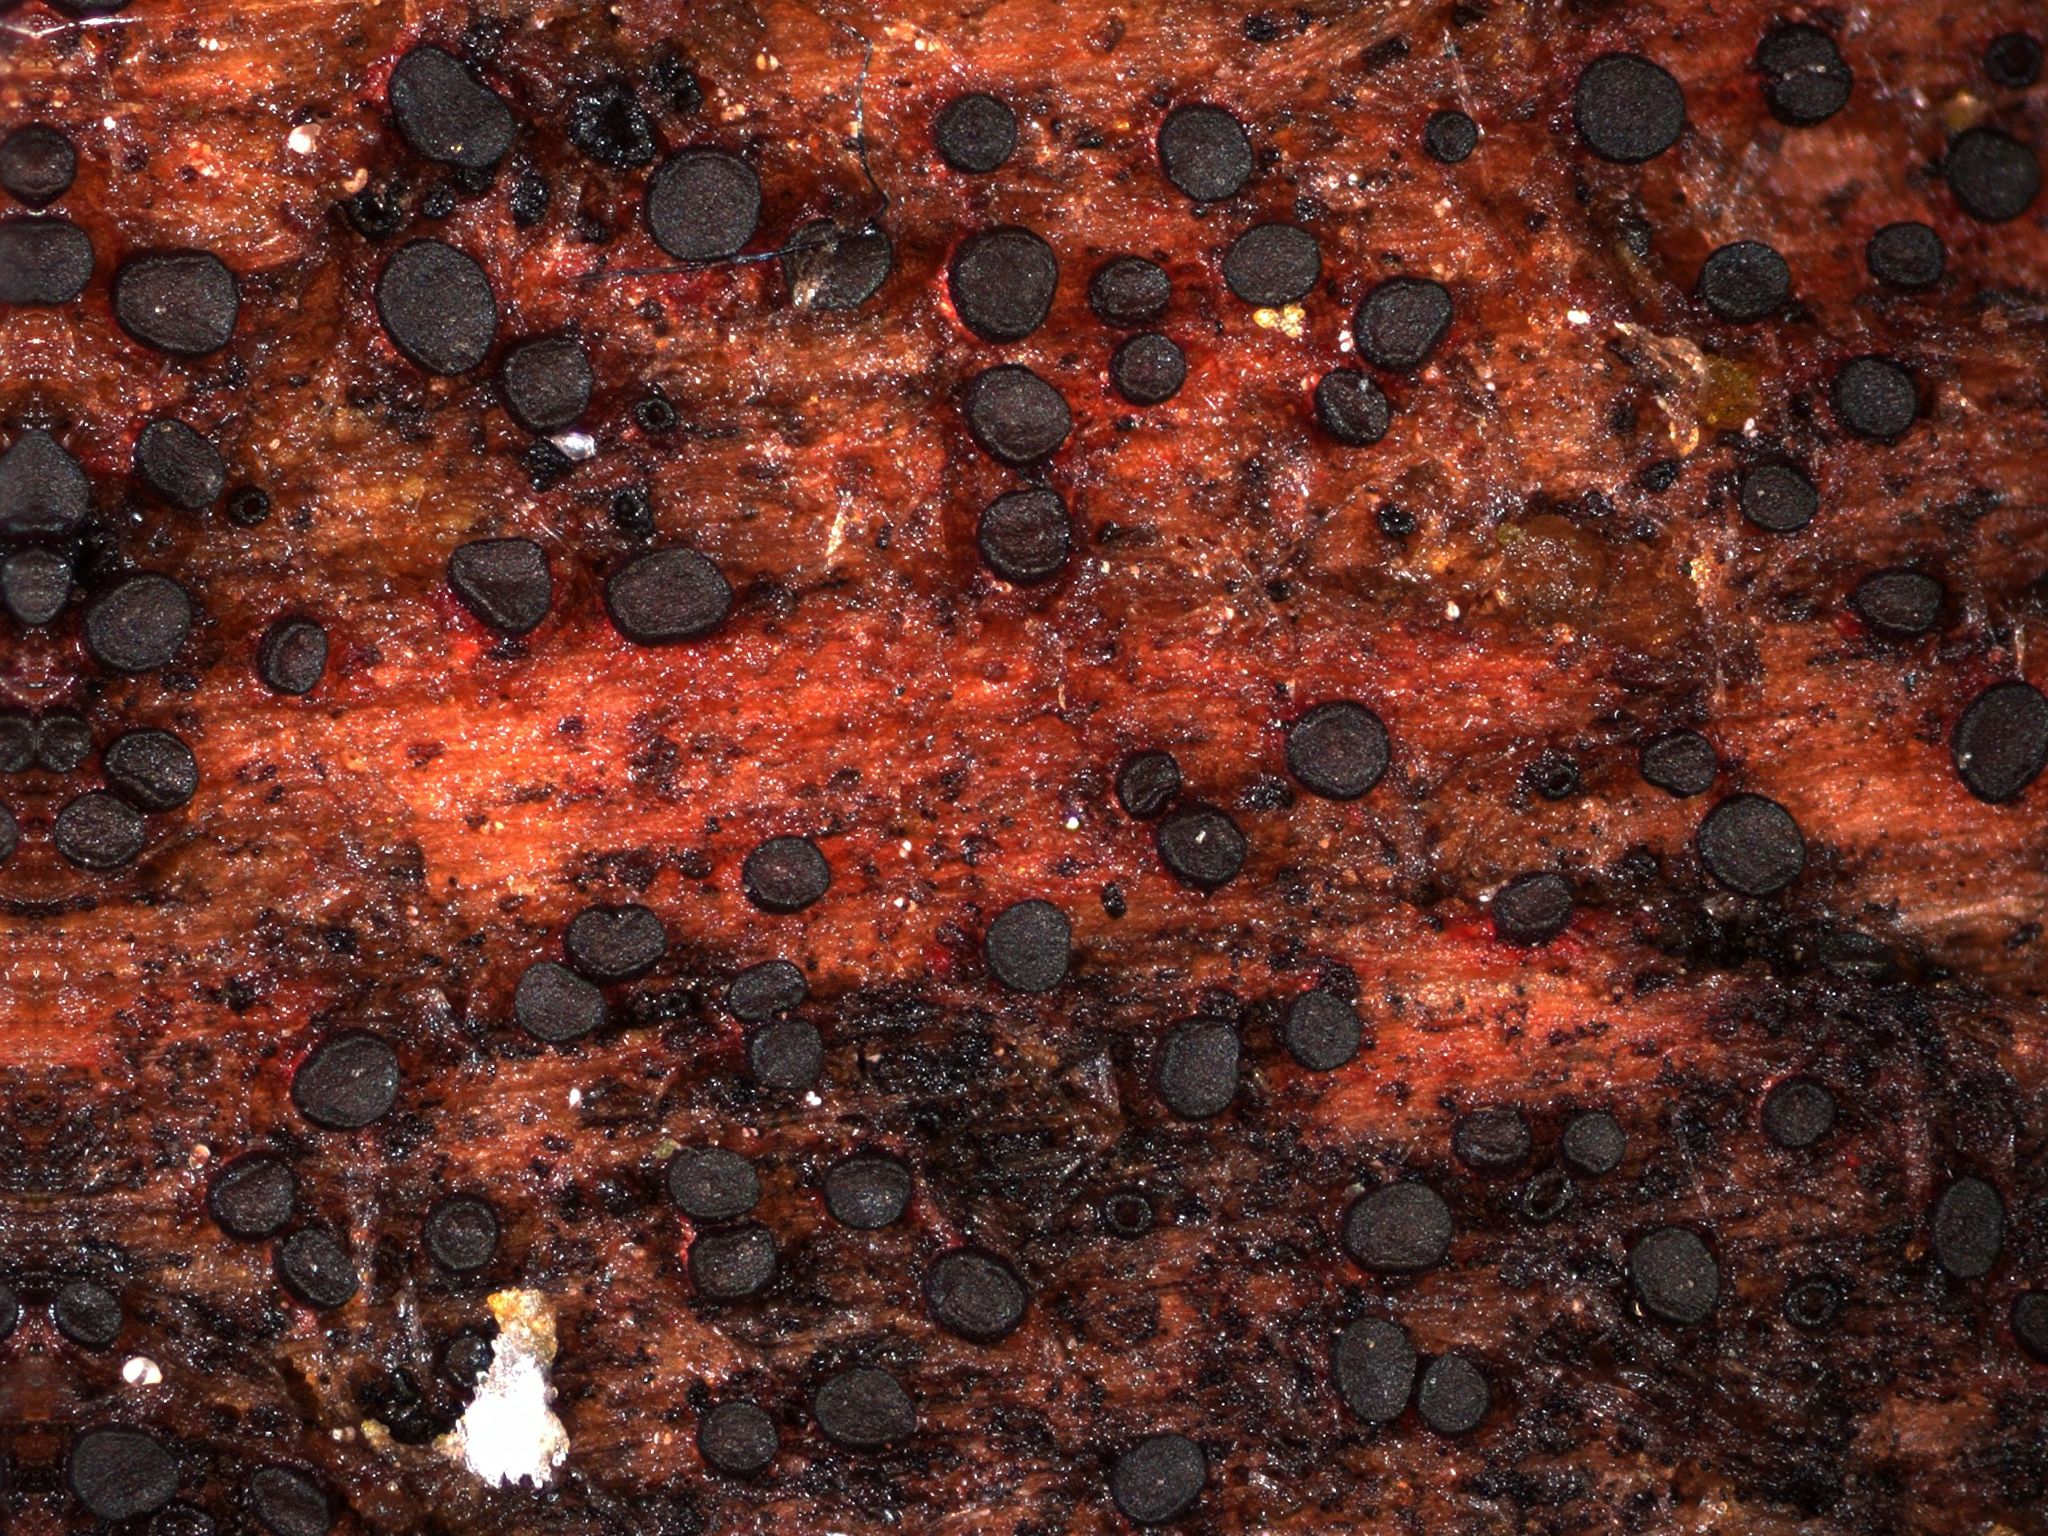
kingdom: Fungi
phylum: Ascomycota
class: Leotiomycetes
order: Helotiales
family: Helotiaceae
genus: Patinellaria
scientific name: Patinellaria sanguinea
